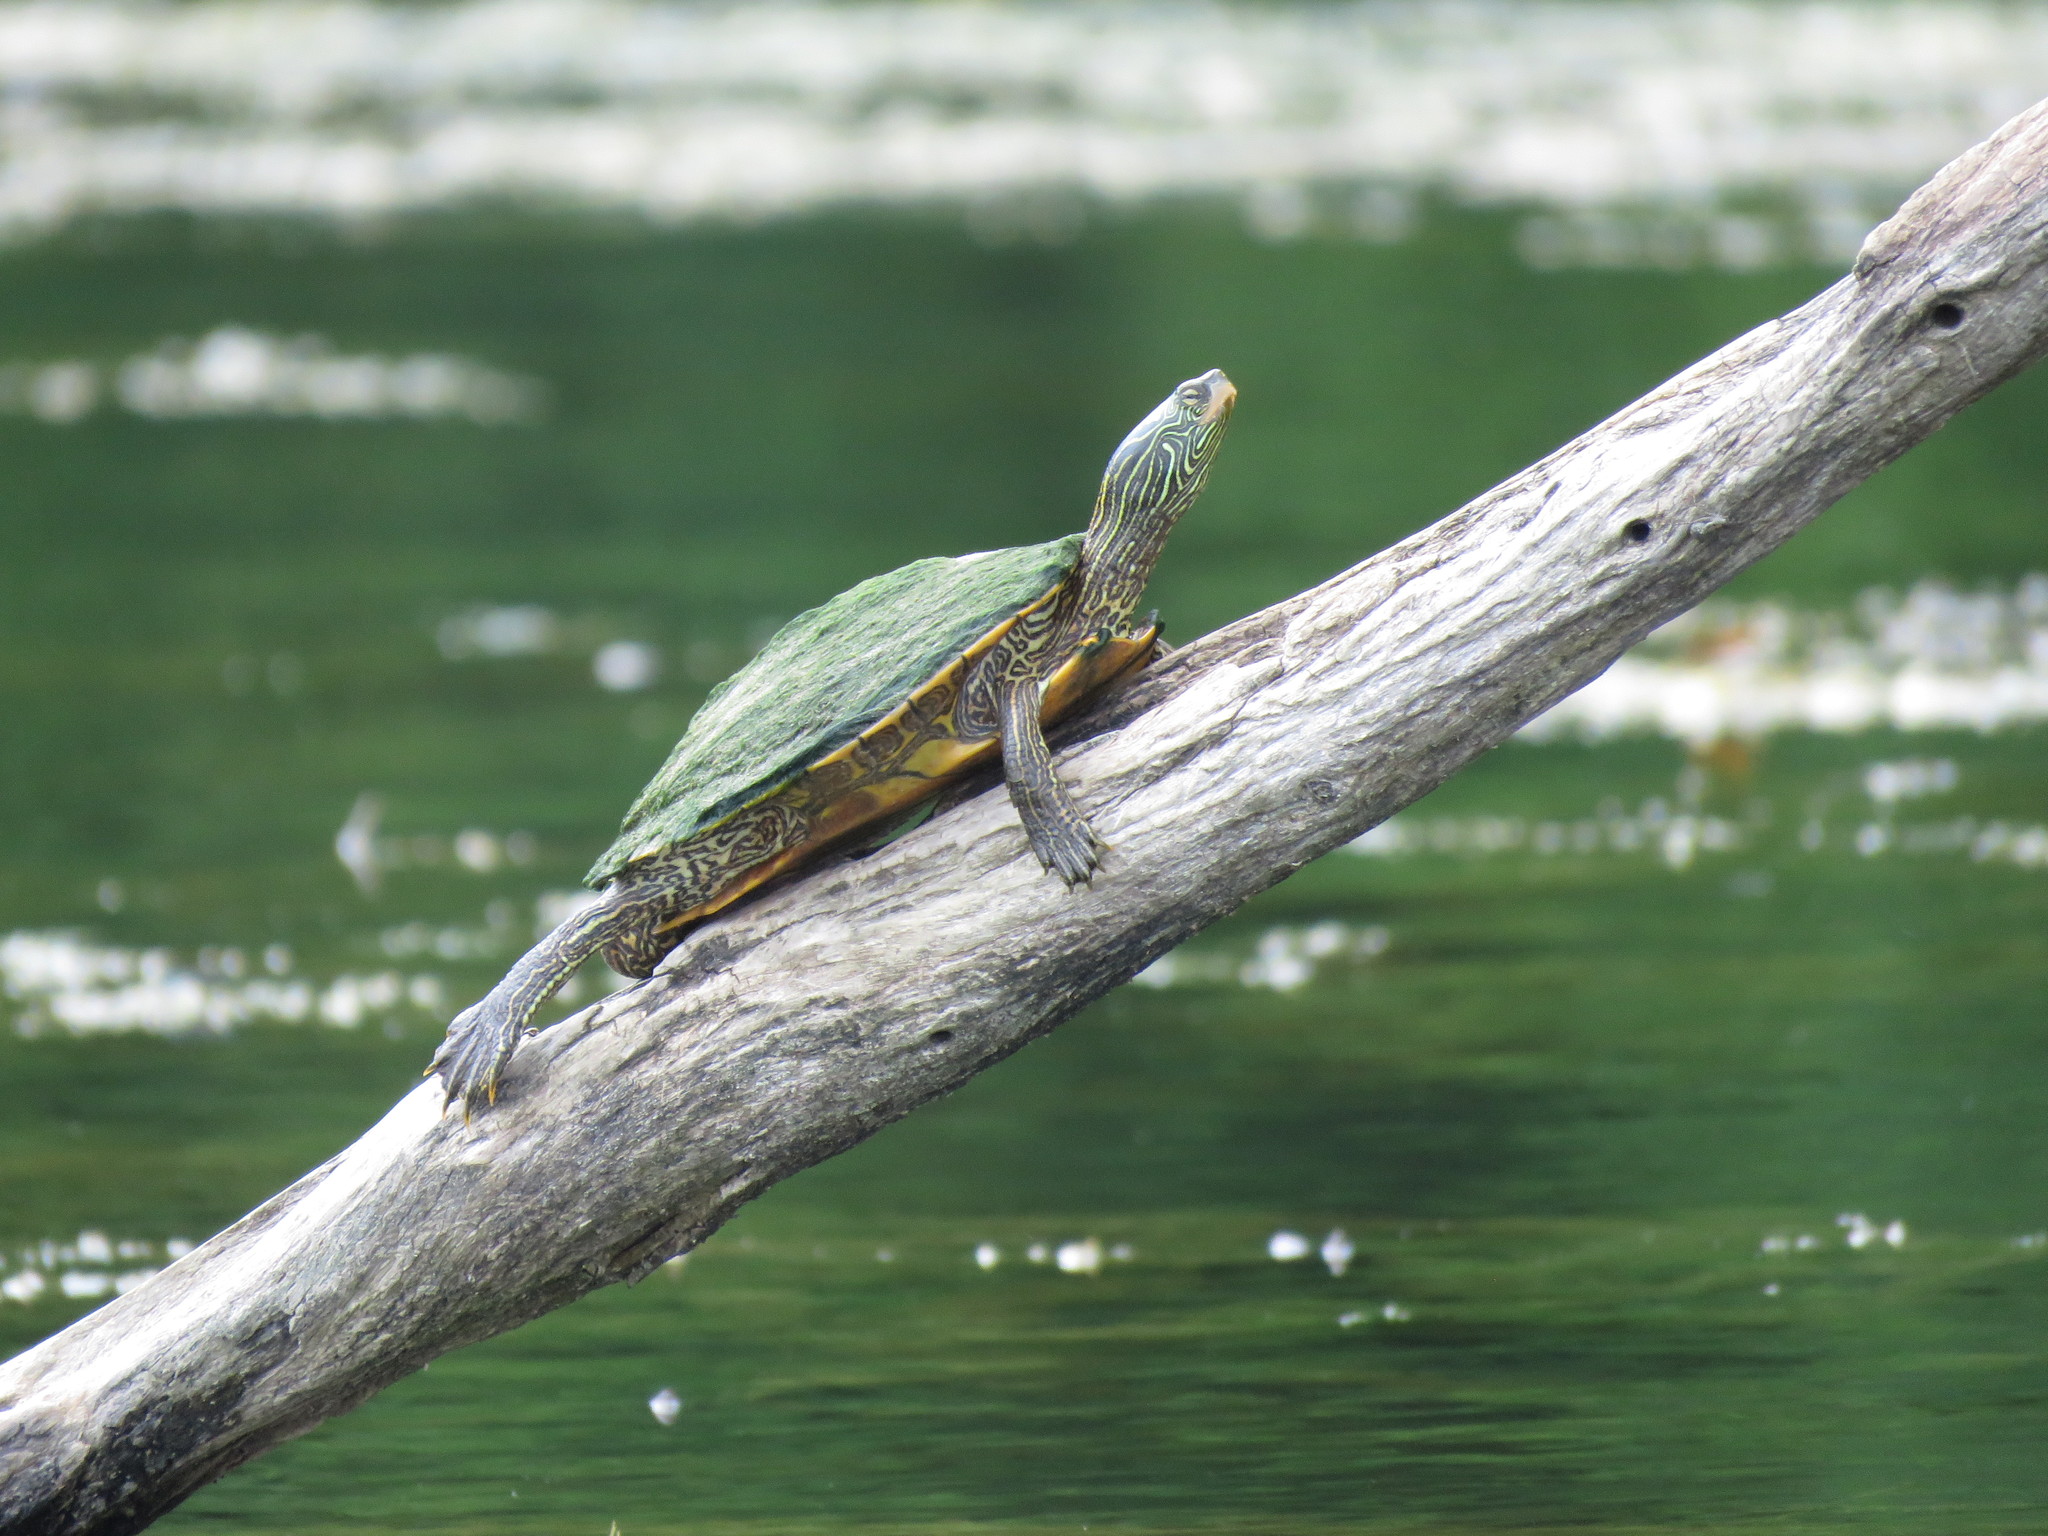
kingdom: Animalia
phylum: Chordata
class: Testudines
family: Emydidae
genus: Graptemys
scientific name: Graptemys geographica
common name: Common map turtle
